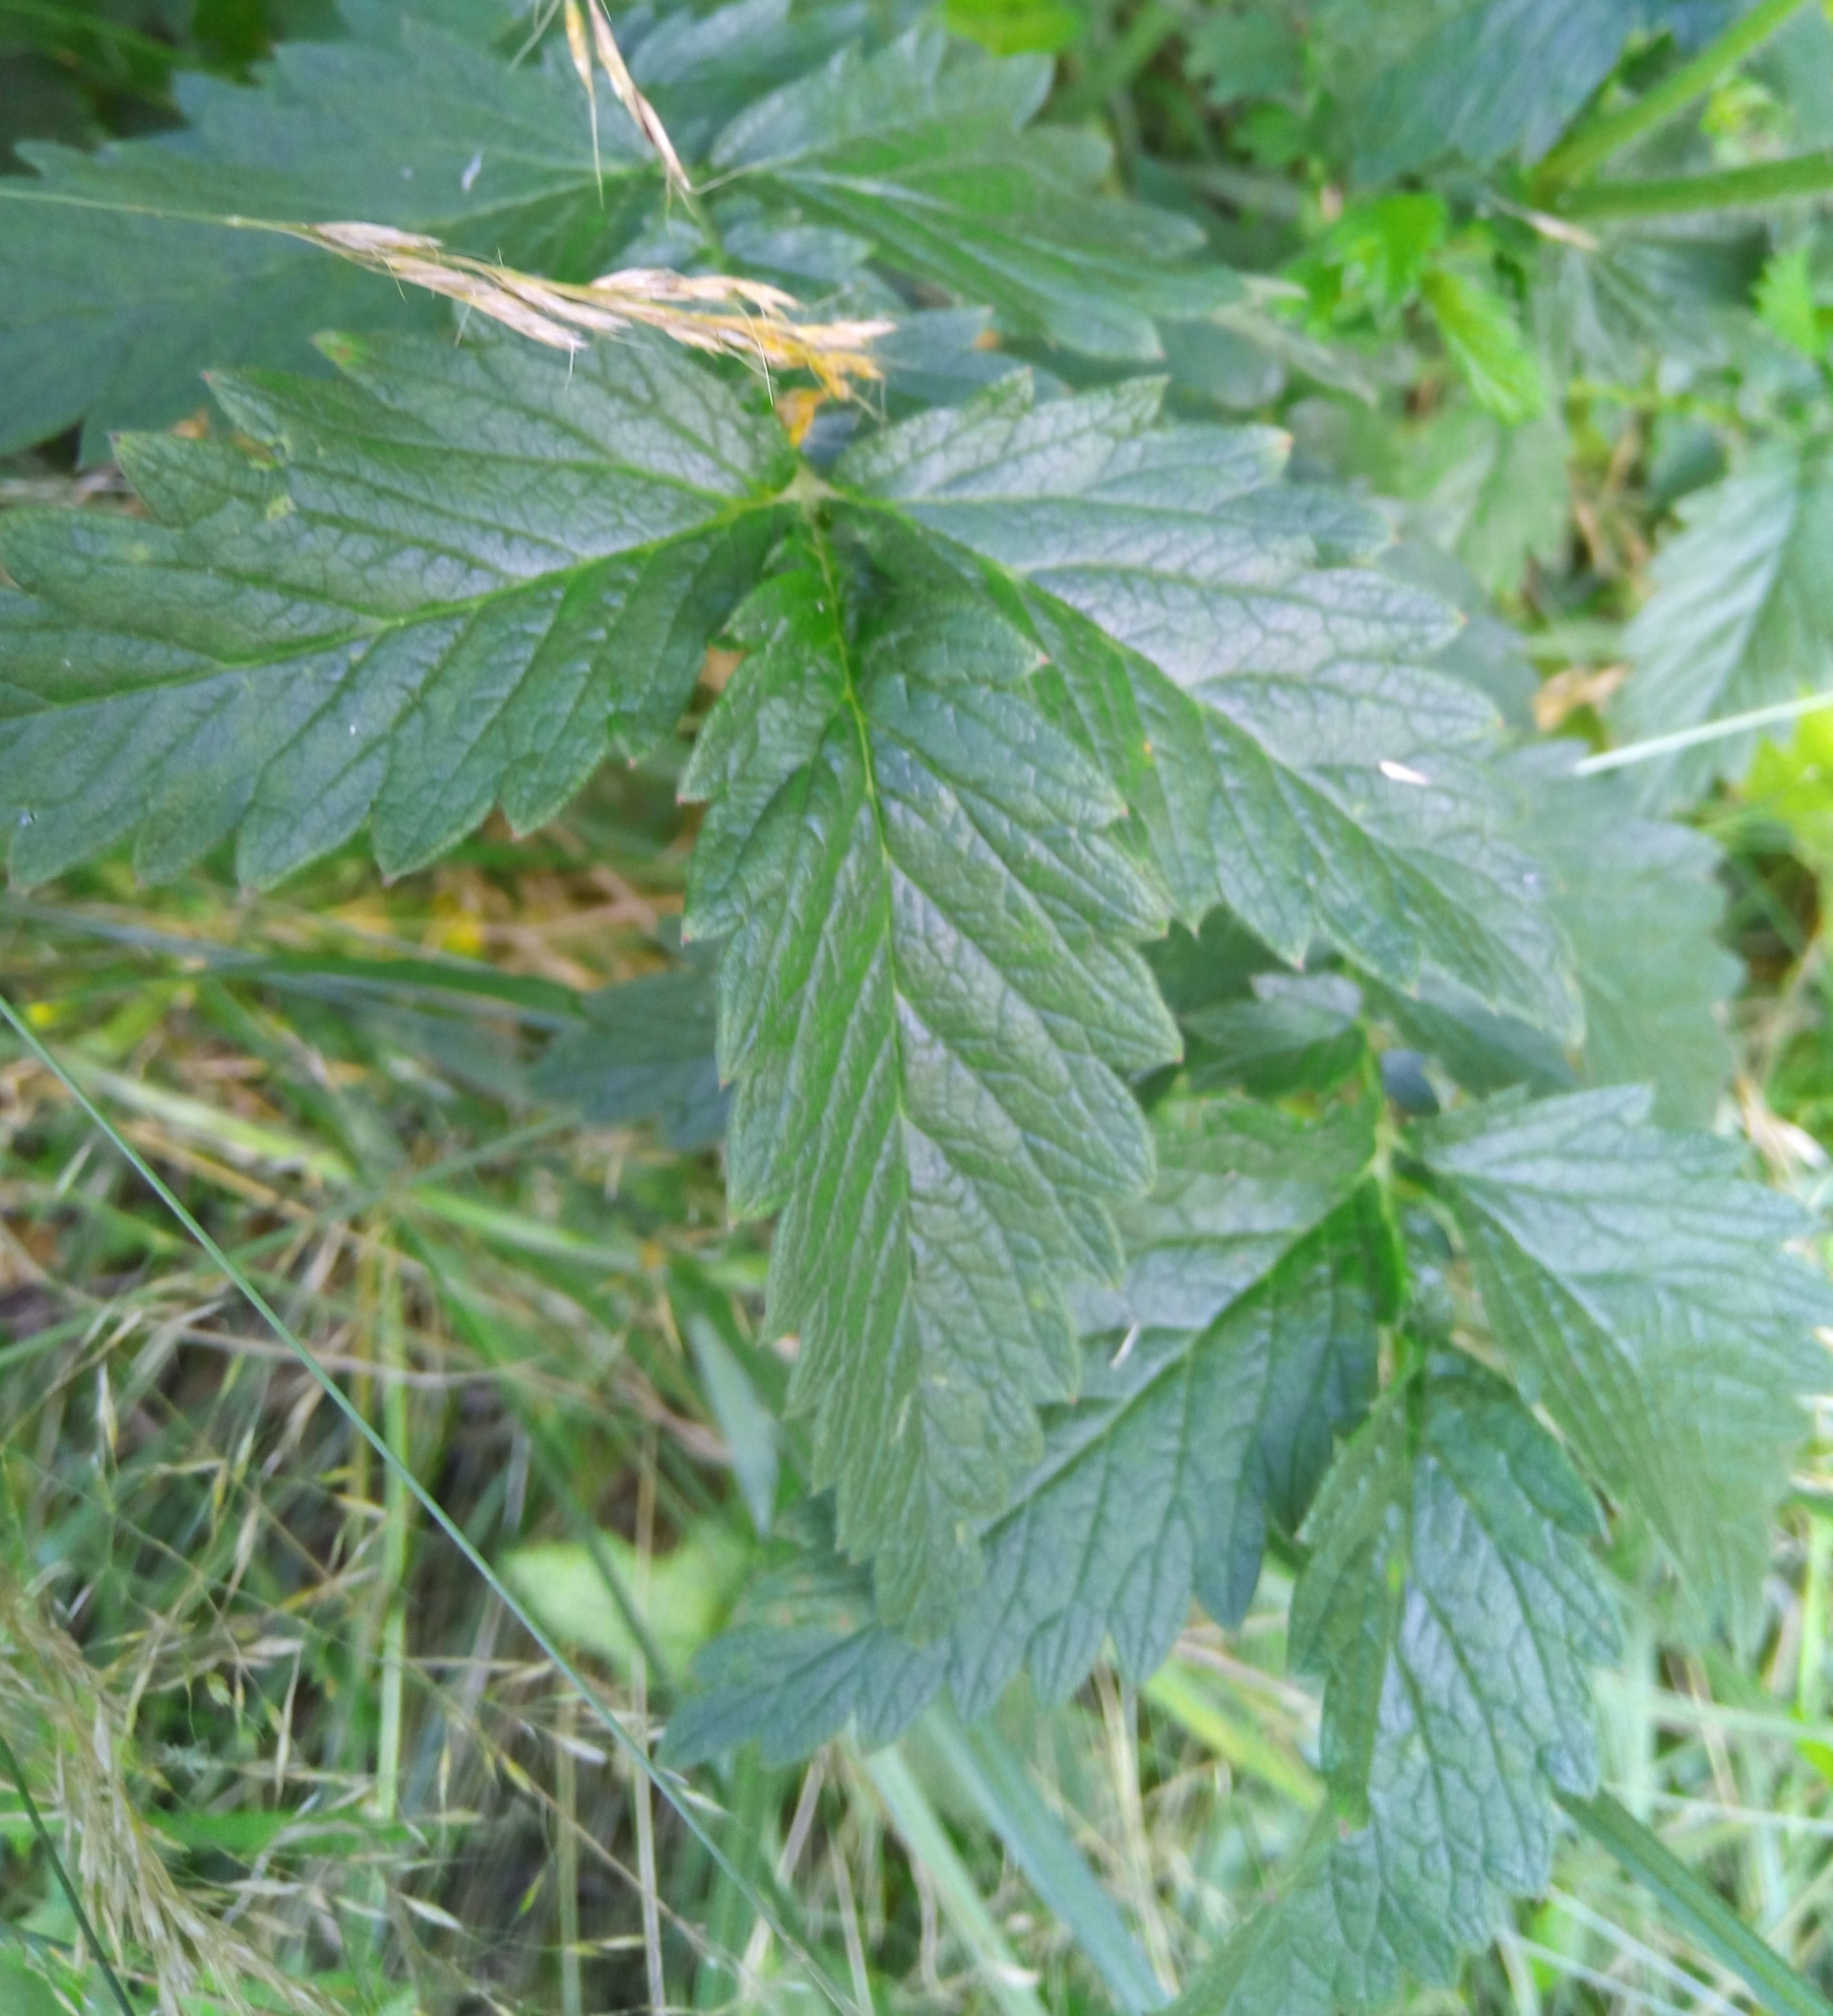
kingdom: Plantae
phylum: Tracheophyta
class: Magnoliopsida
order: Asterales
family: Campanulaceae
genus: Campanula
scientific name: Campanula trachelium
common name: Nettle-leaved bellflower
